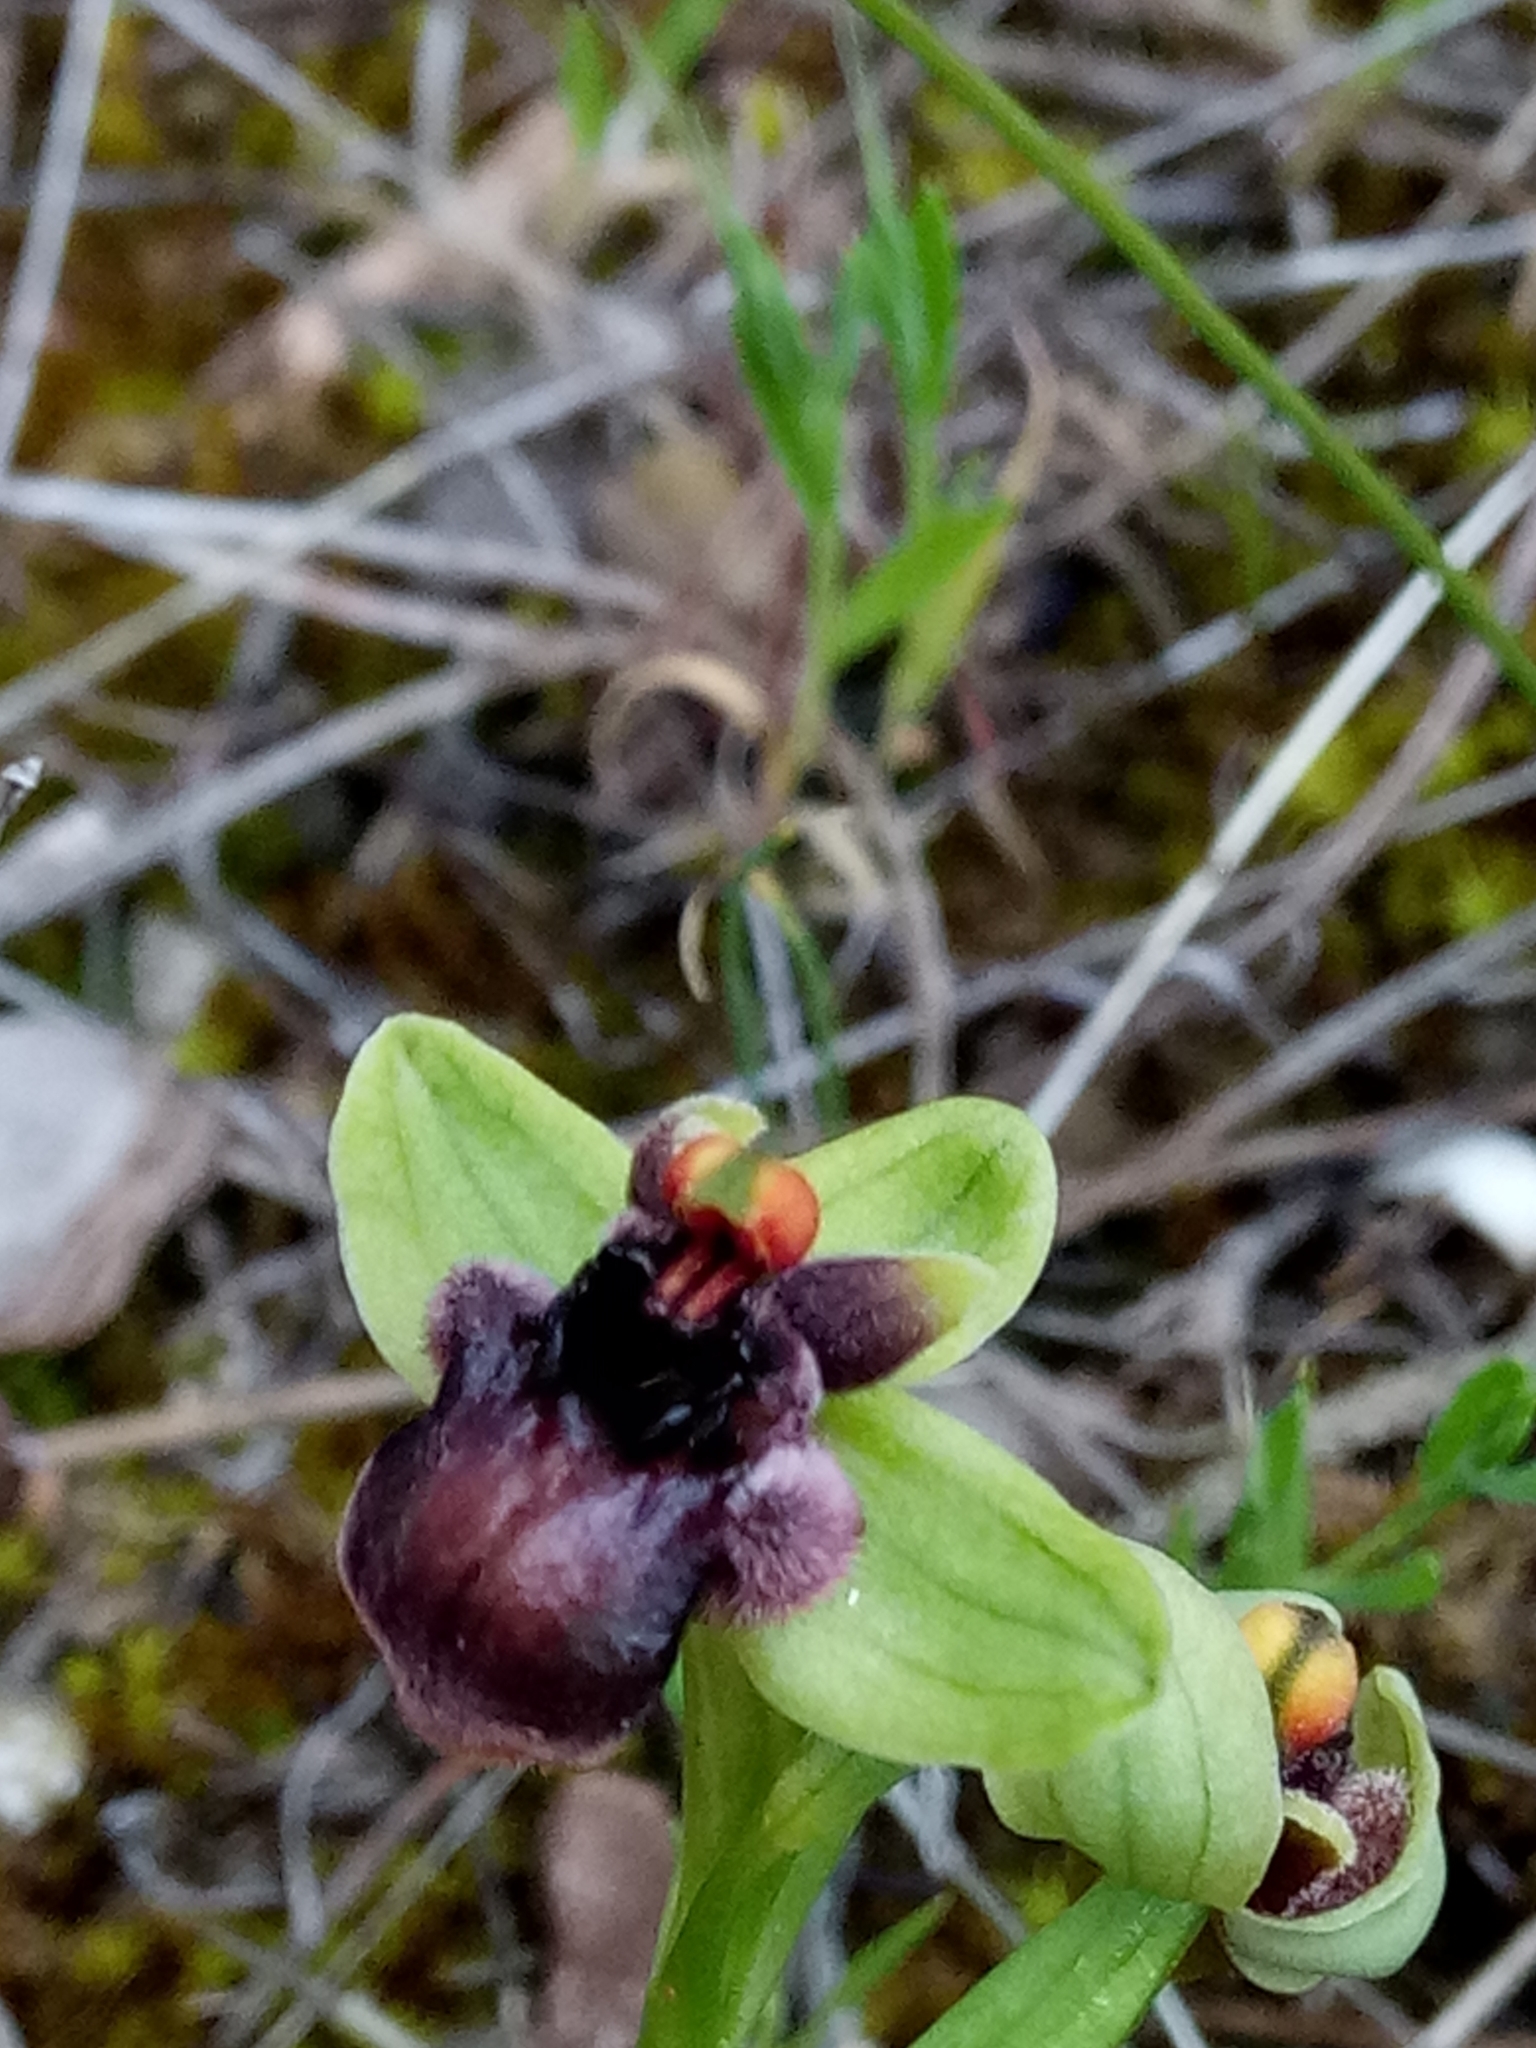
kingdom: Plantae
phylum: Tracheophyta
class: Liliopsida
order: Asparagales
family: Orchidaceae
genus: Ophrys
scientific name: Ophrys bombyliflora
